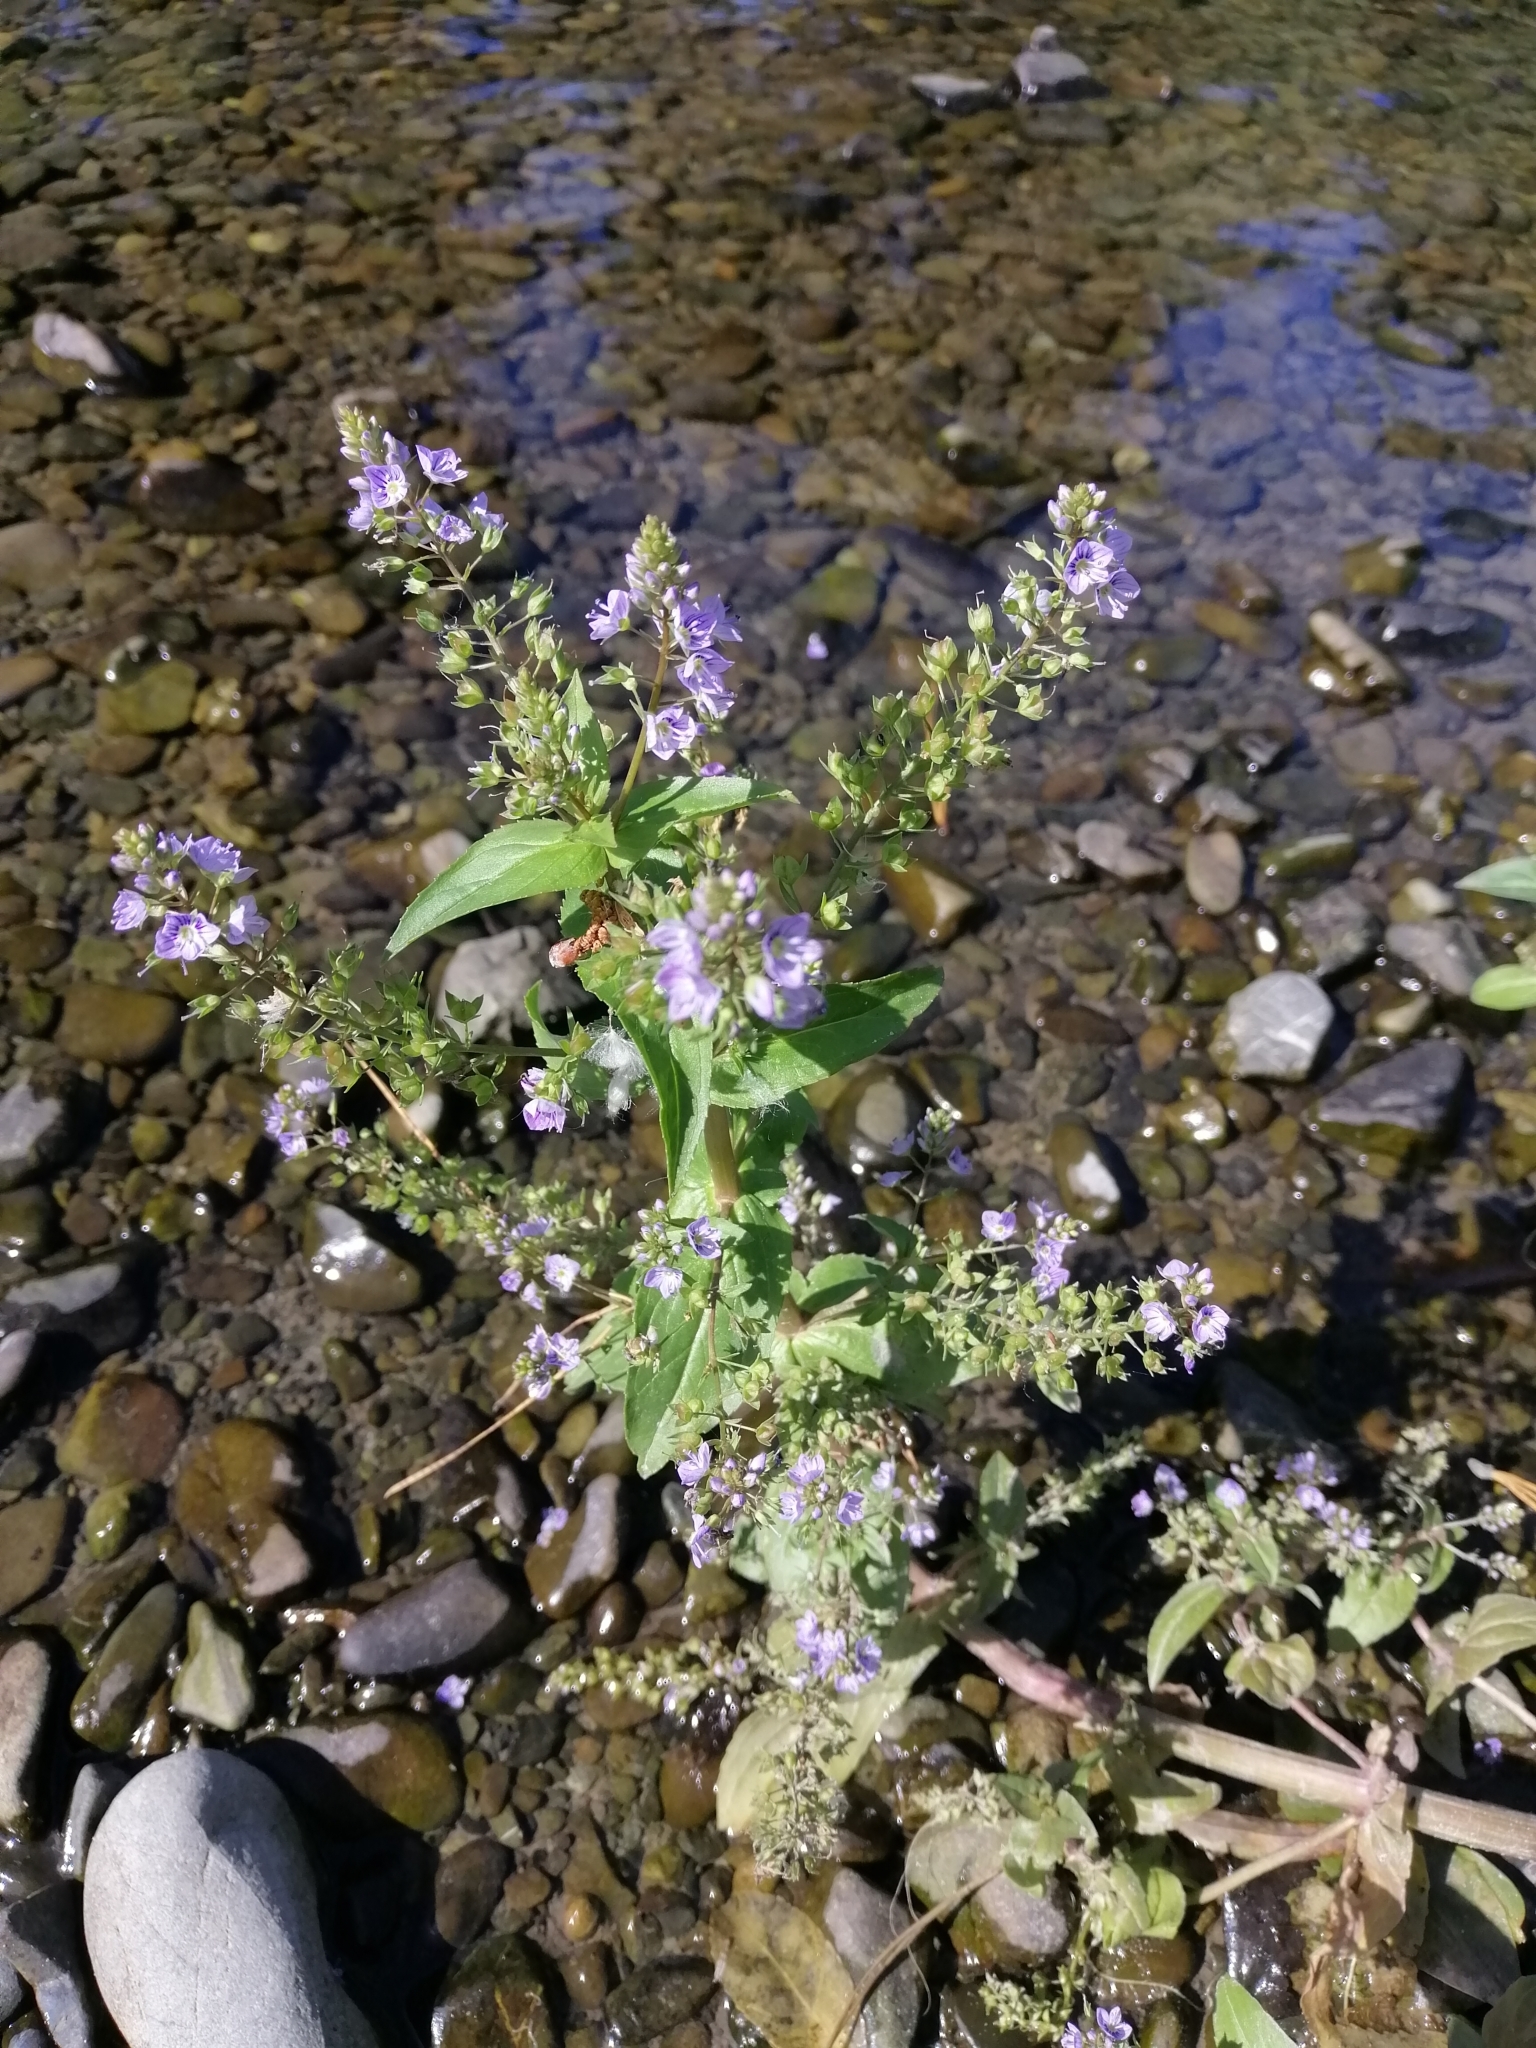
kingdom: Plantae
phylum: Tracheophyta
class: Magnoliopsida
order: Lamiales
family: Plantaginaceae
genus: Veronica
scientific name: Veronica anagallis-aquatica
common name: Water speedwell
